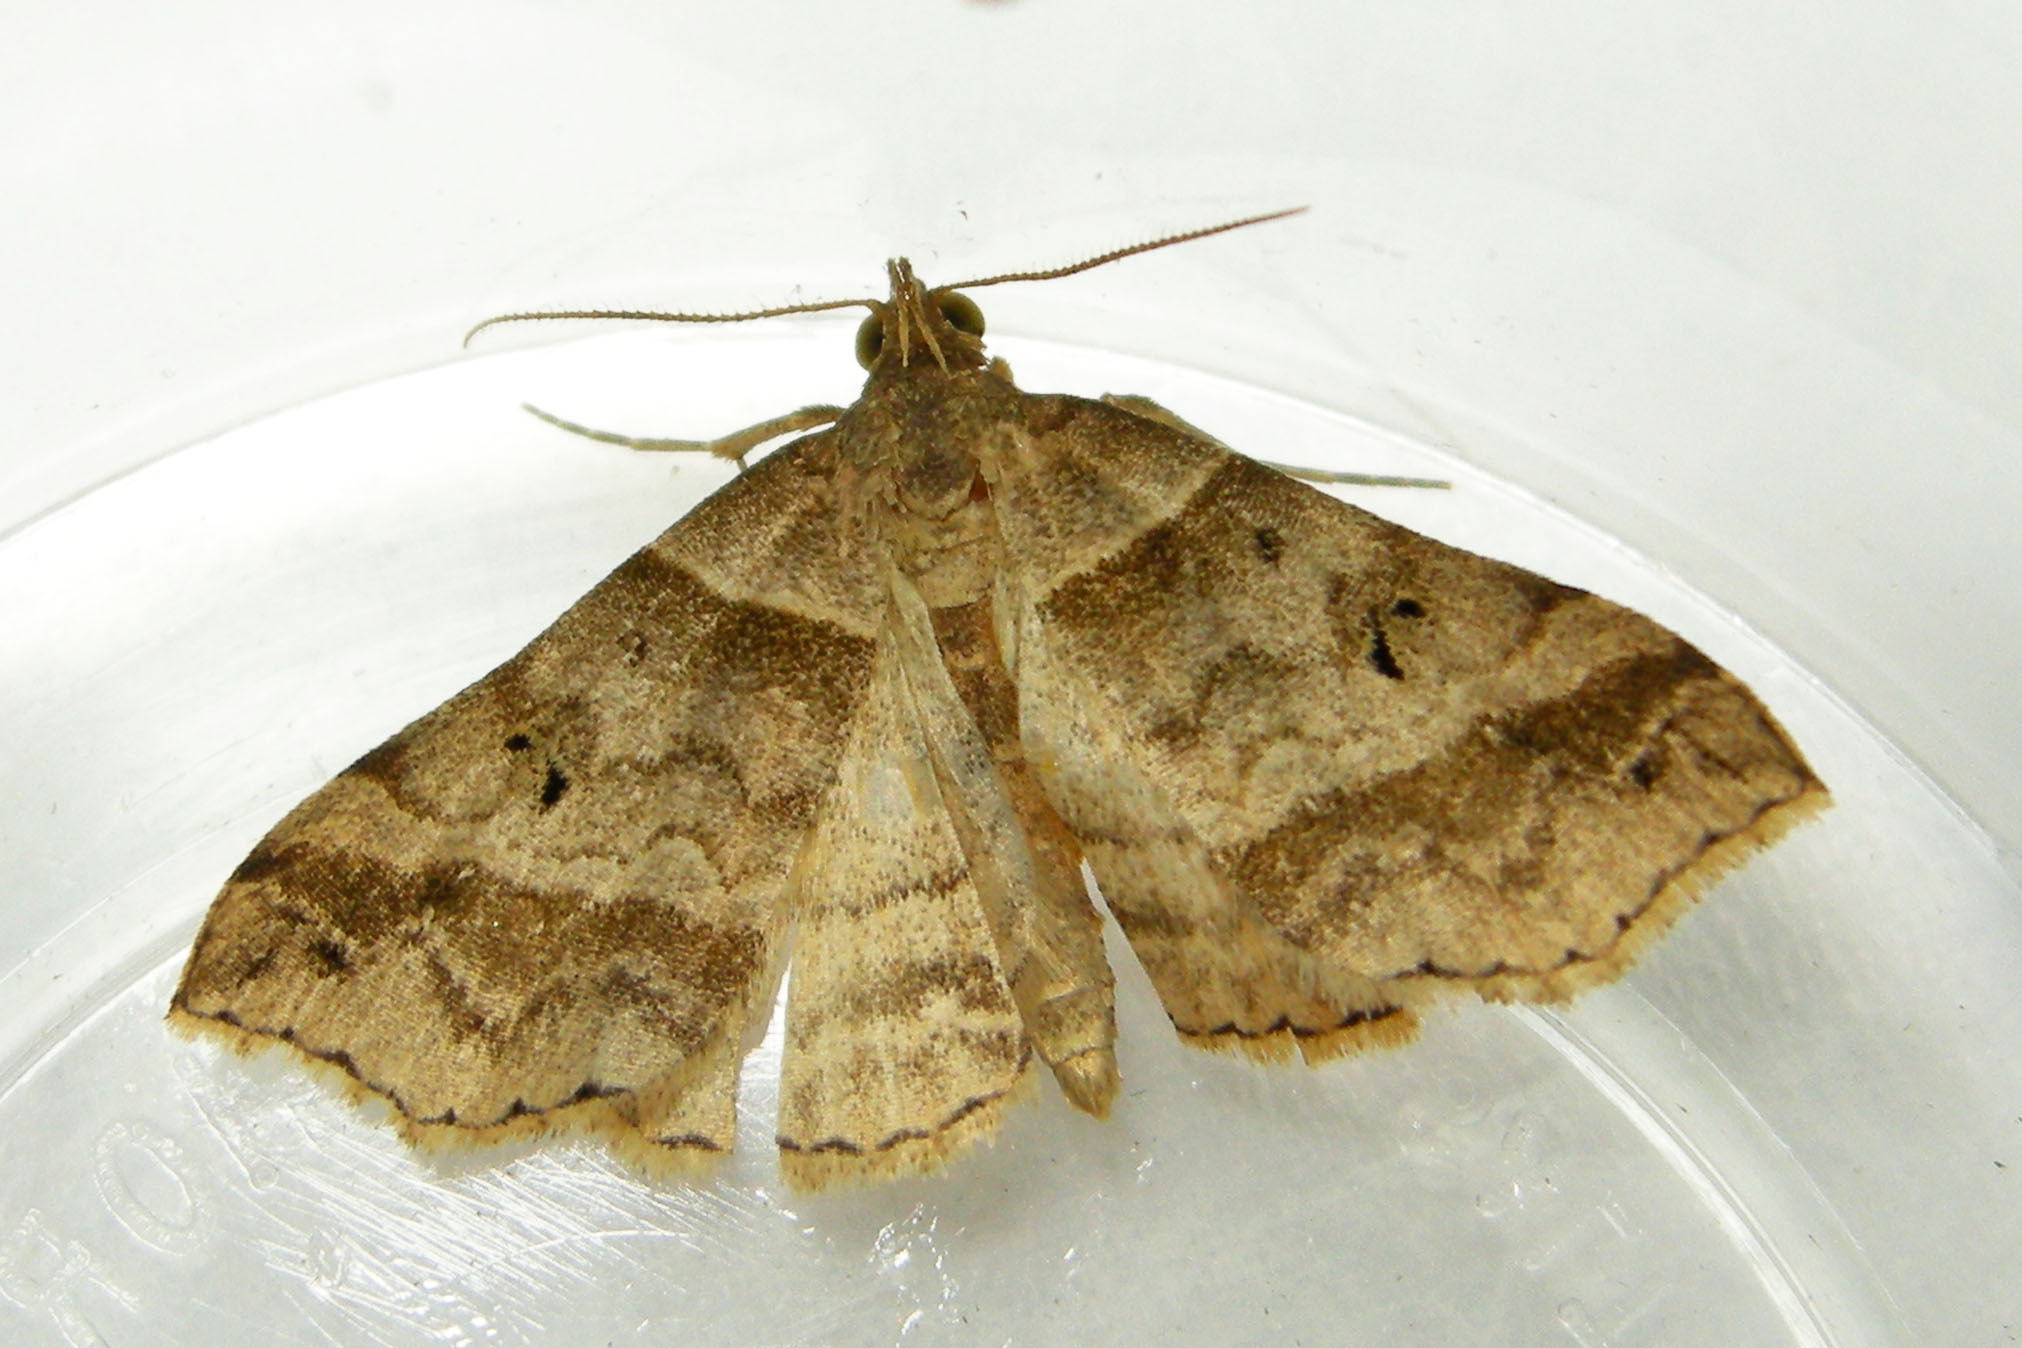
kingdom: Animalia
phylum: Arthropoda
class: Insecta
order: Lepidoptera
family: Erebidae
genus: Phaeolita
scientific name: Phaeolita pyramusalis
